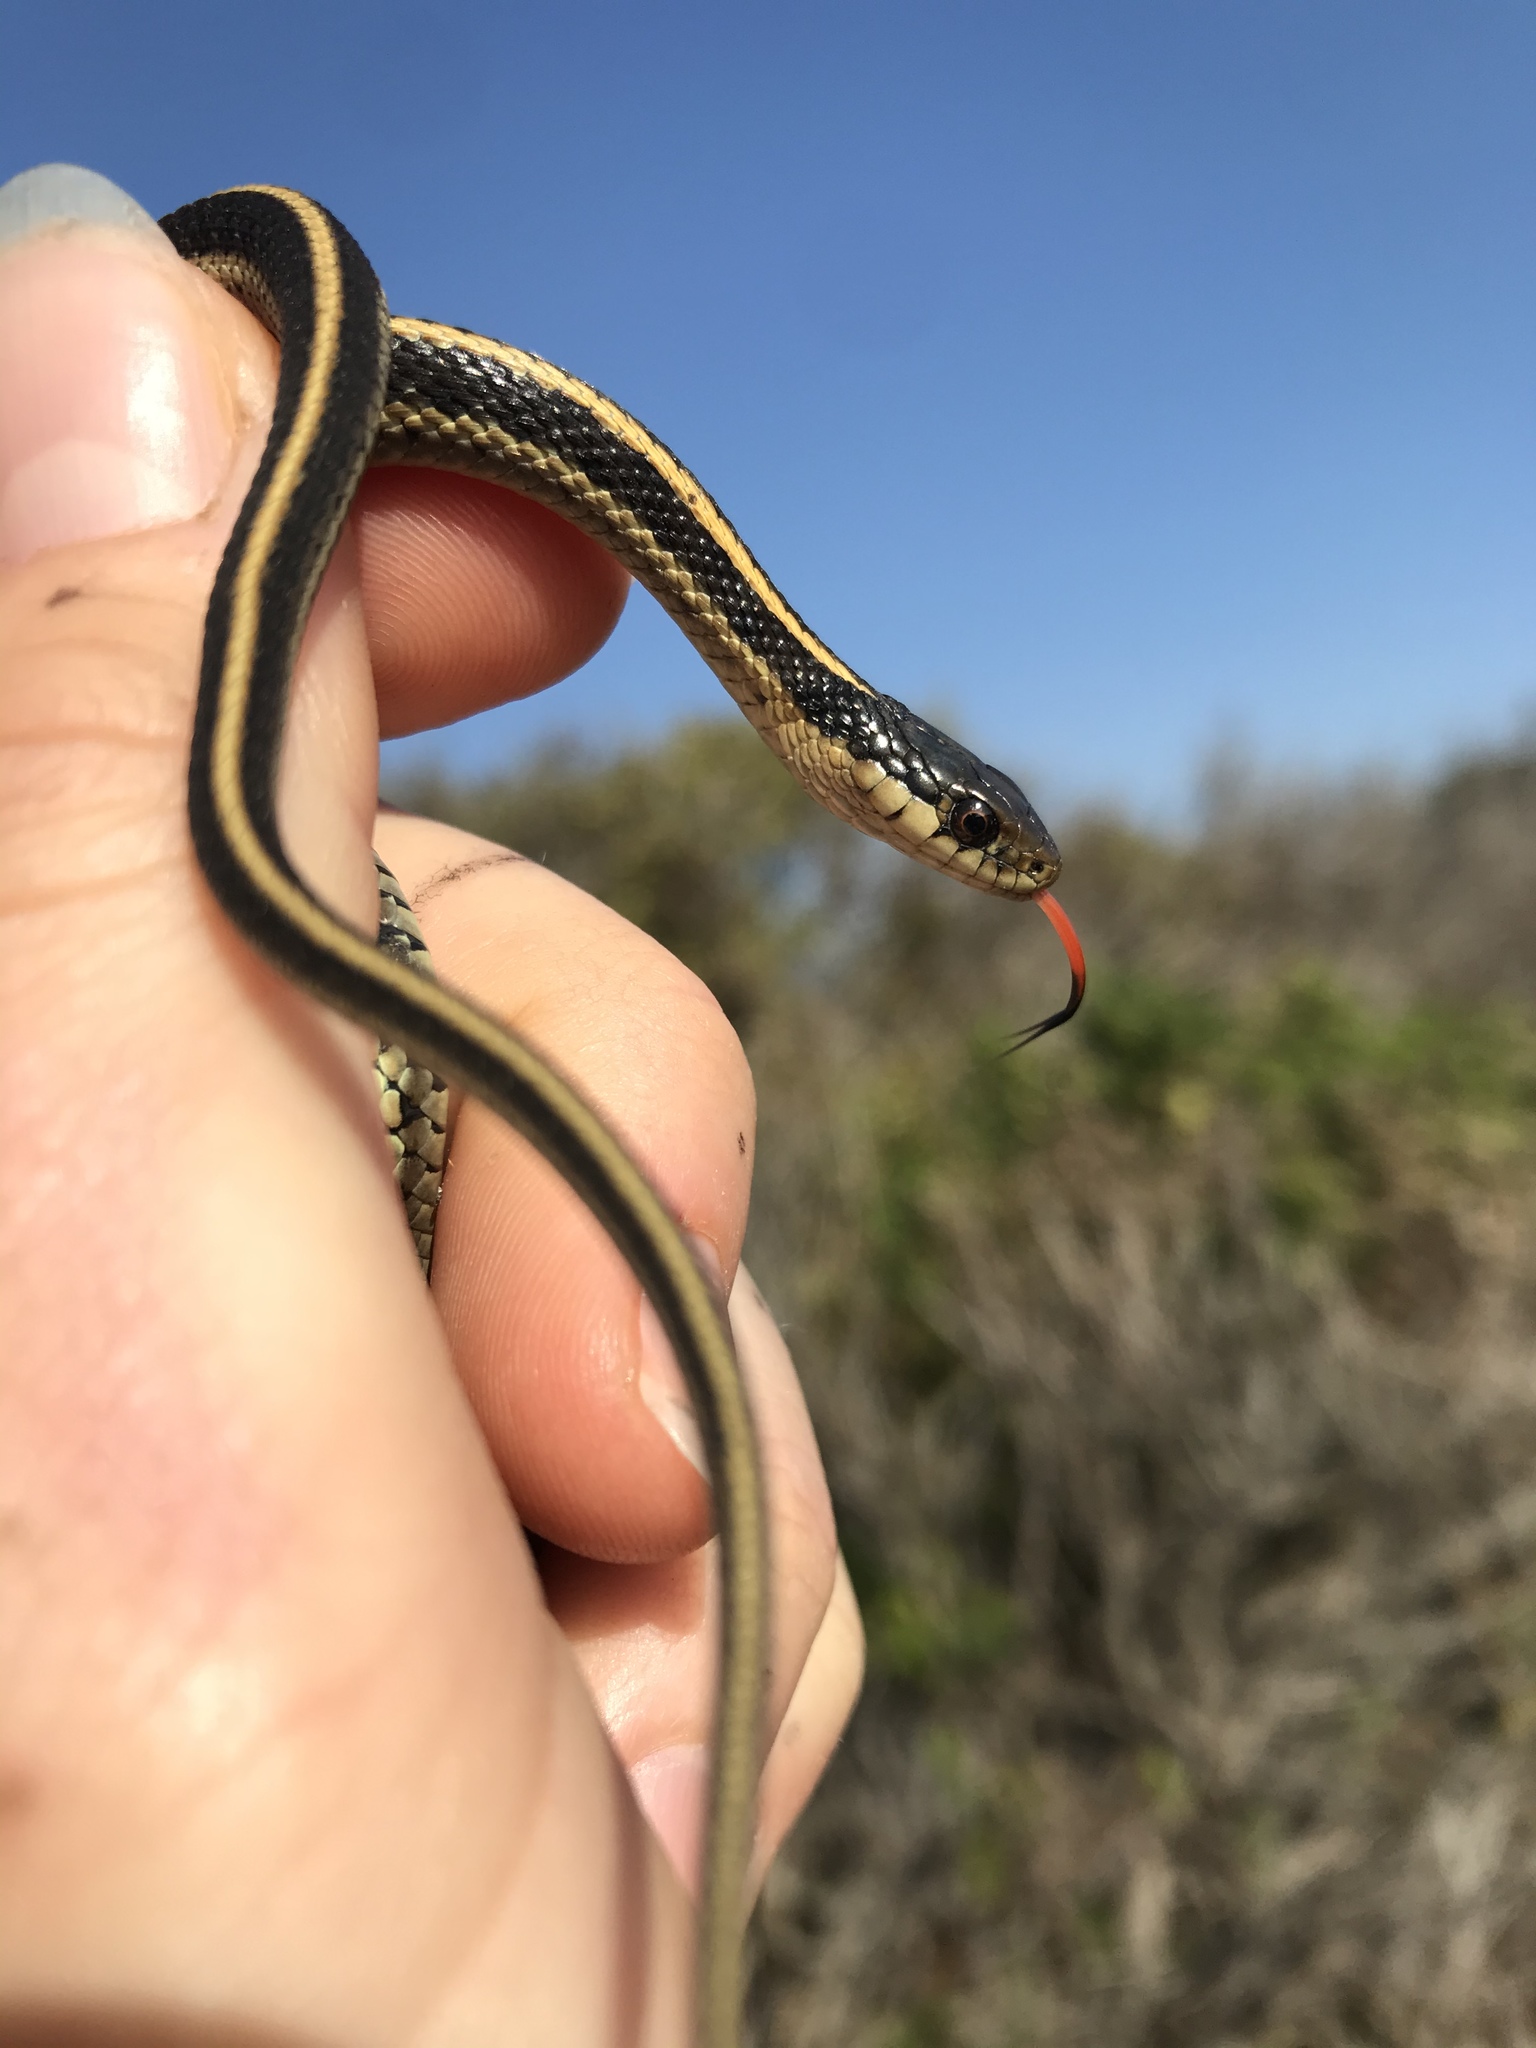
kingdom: Animalia
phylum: Chordata
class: Squamata
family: Colubridae
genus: Thamnophis
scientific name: Thamnophis elegans
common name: Western terrestrial garter snake
